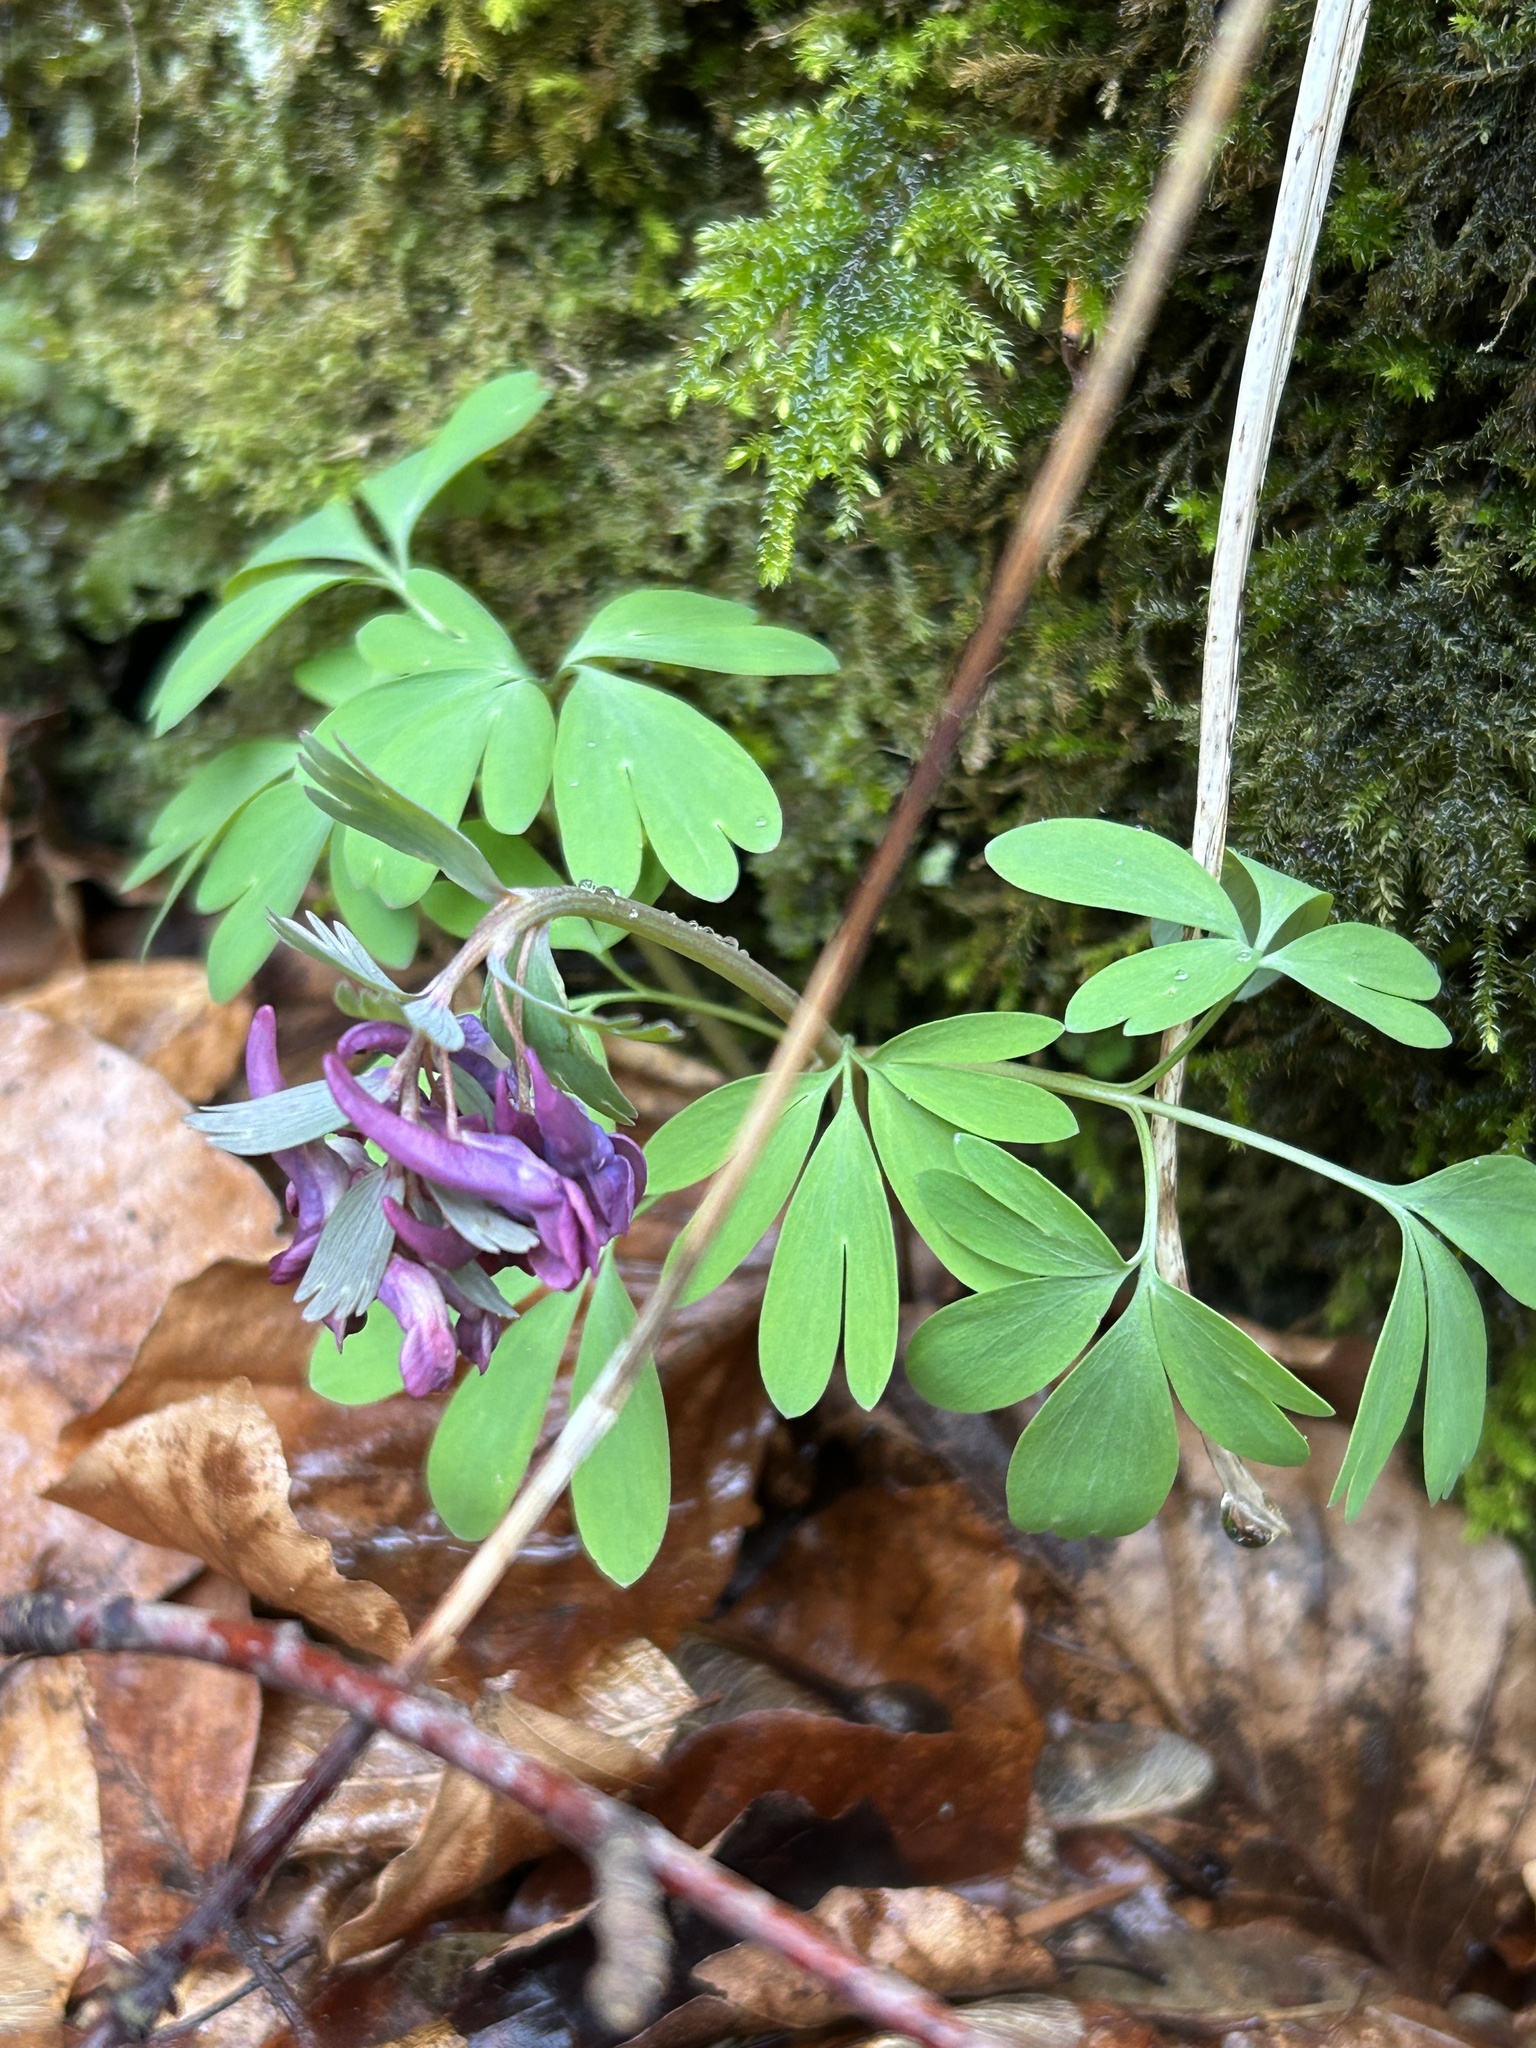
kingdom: Plantae
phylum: Tracheophyta
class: Magnoliopsida
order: Ranunculales
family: Papaveraceae
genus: Corydalis
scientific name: Corydalis solida
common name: Bird-in-a-bush
